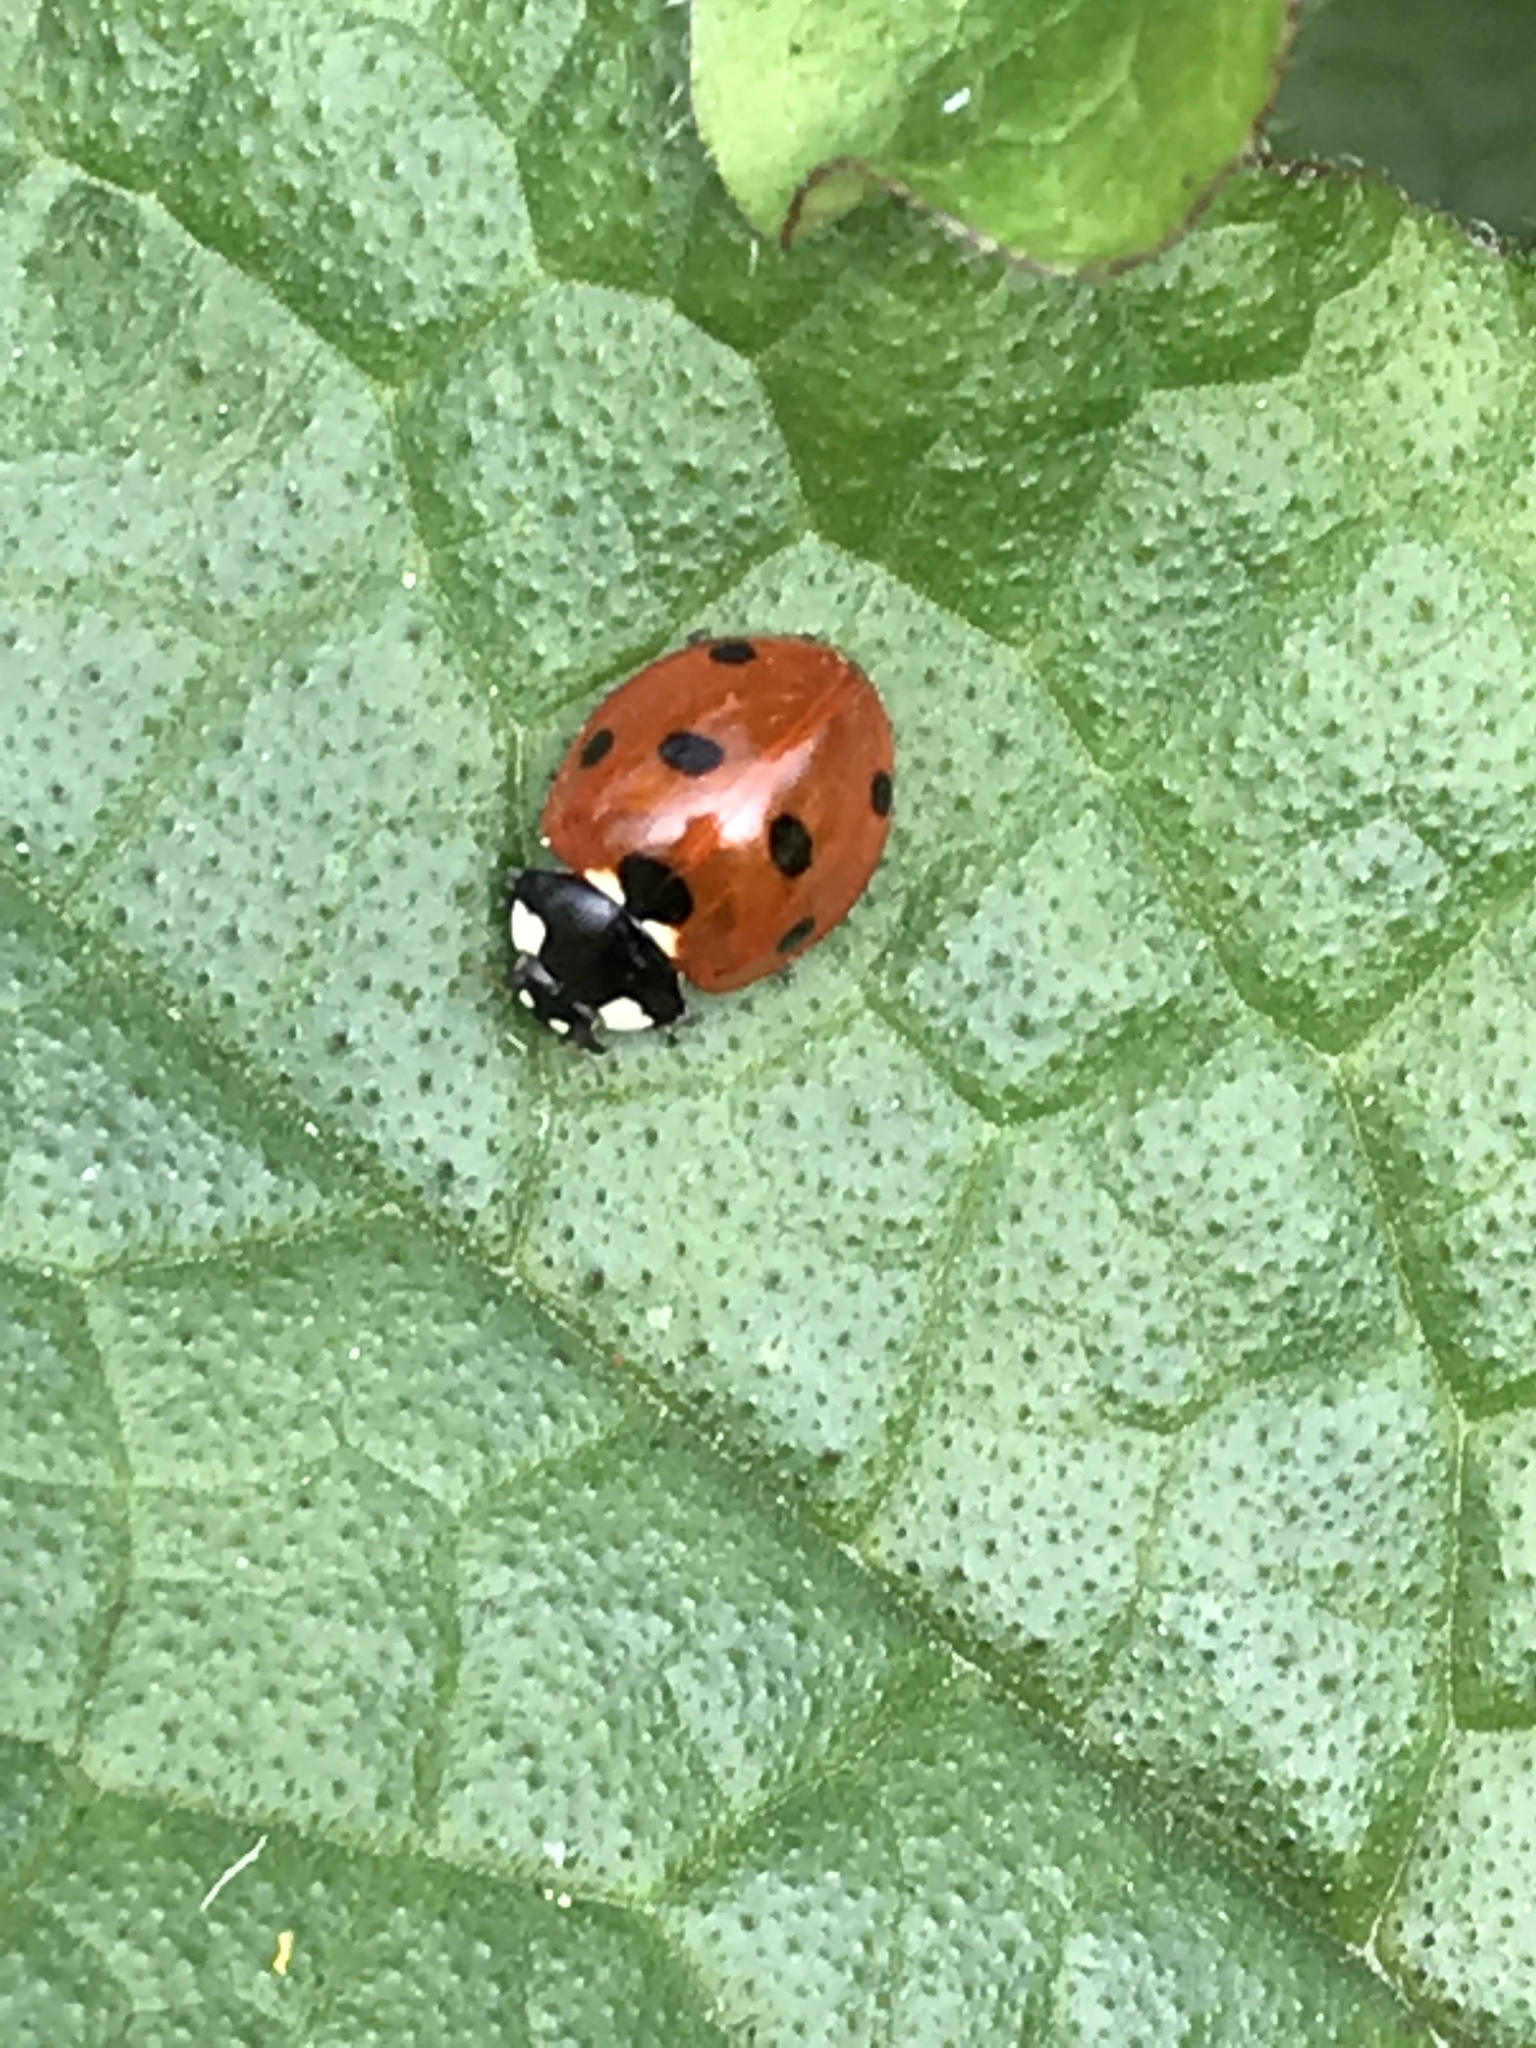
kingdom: Animalia
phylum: Arthropoda
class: Insecta
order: Coleoptera
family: Coccinellidae
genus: Coccinella
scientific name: Coccinella septempunctata
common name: Sevenspotted lady beetle
